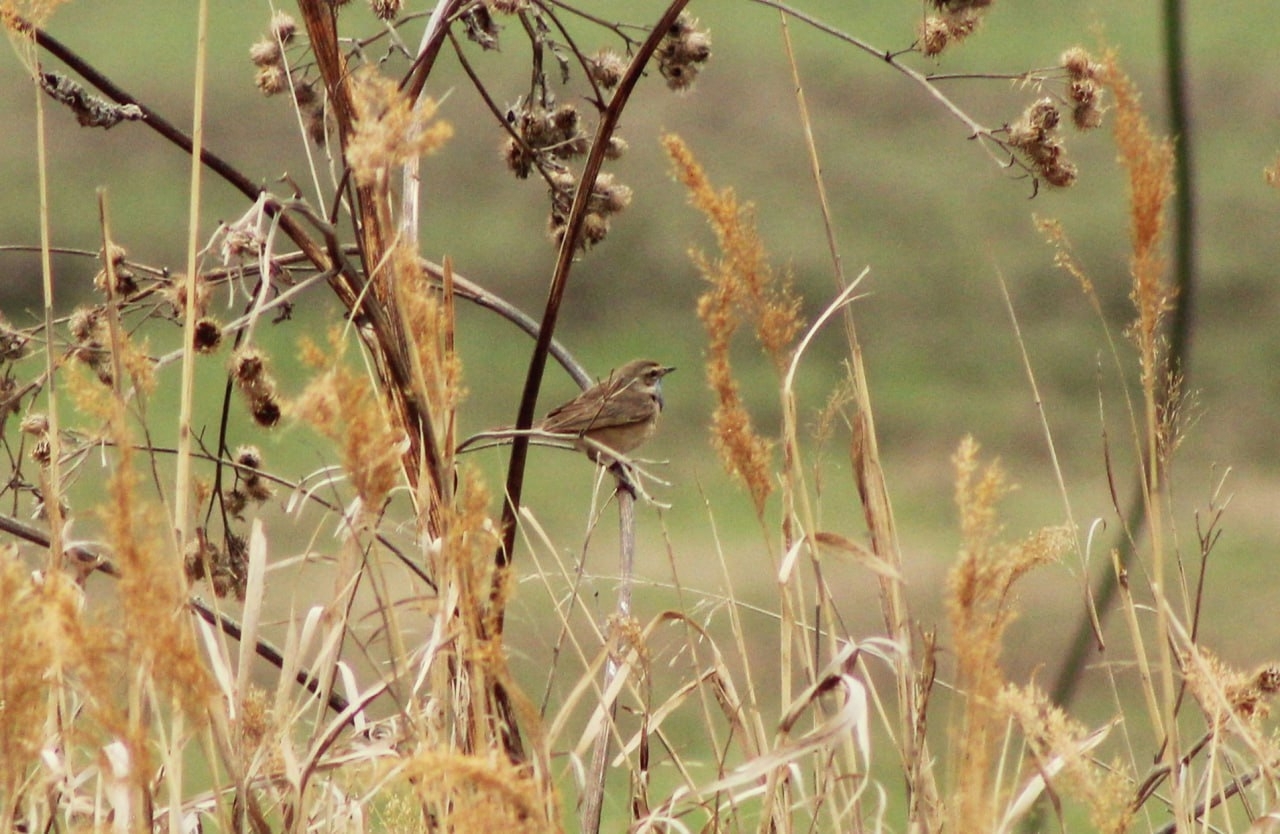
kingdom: Animalia
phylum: Chordata
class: Aves
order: Passeriformes
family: Muscicapidae
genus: Luscinia
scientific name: Luscinia svecica
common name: Bluethroat
